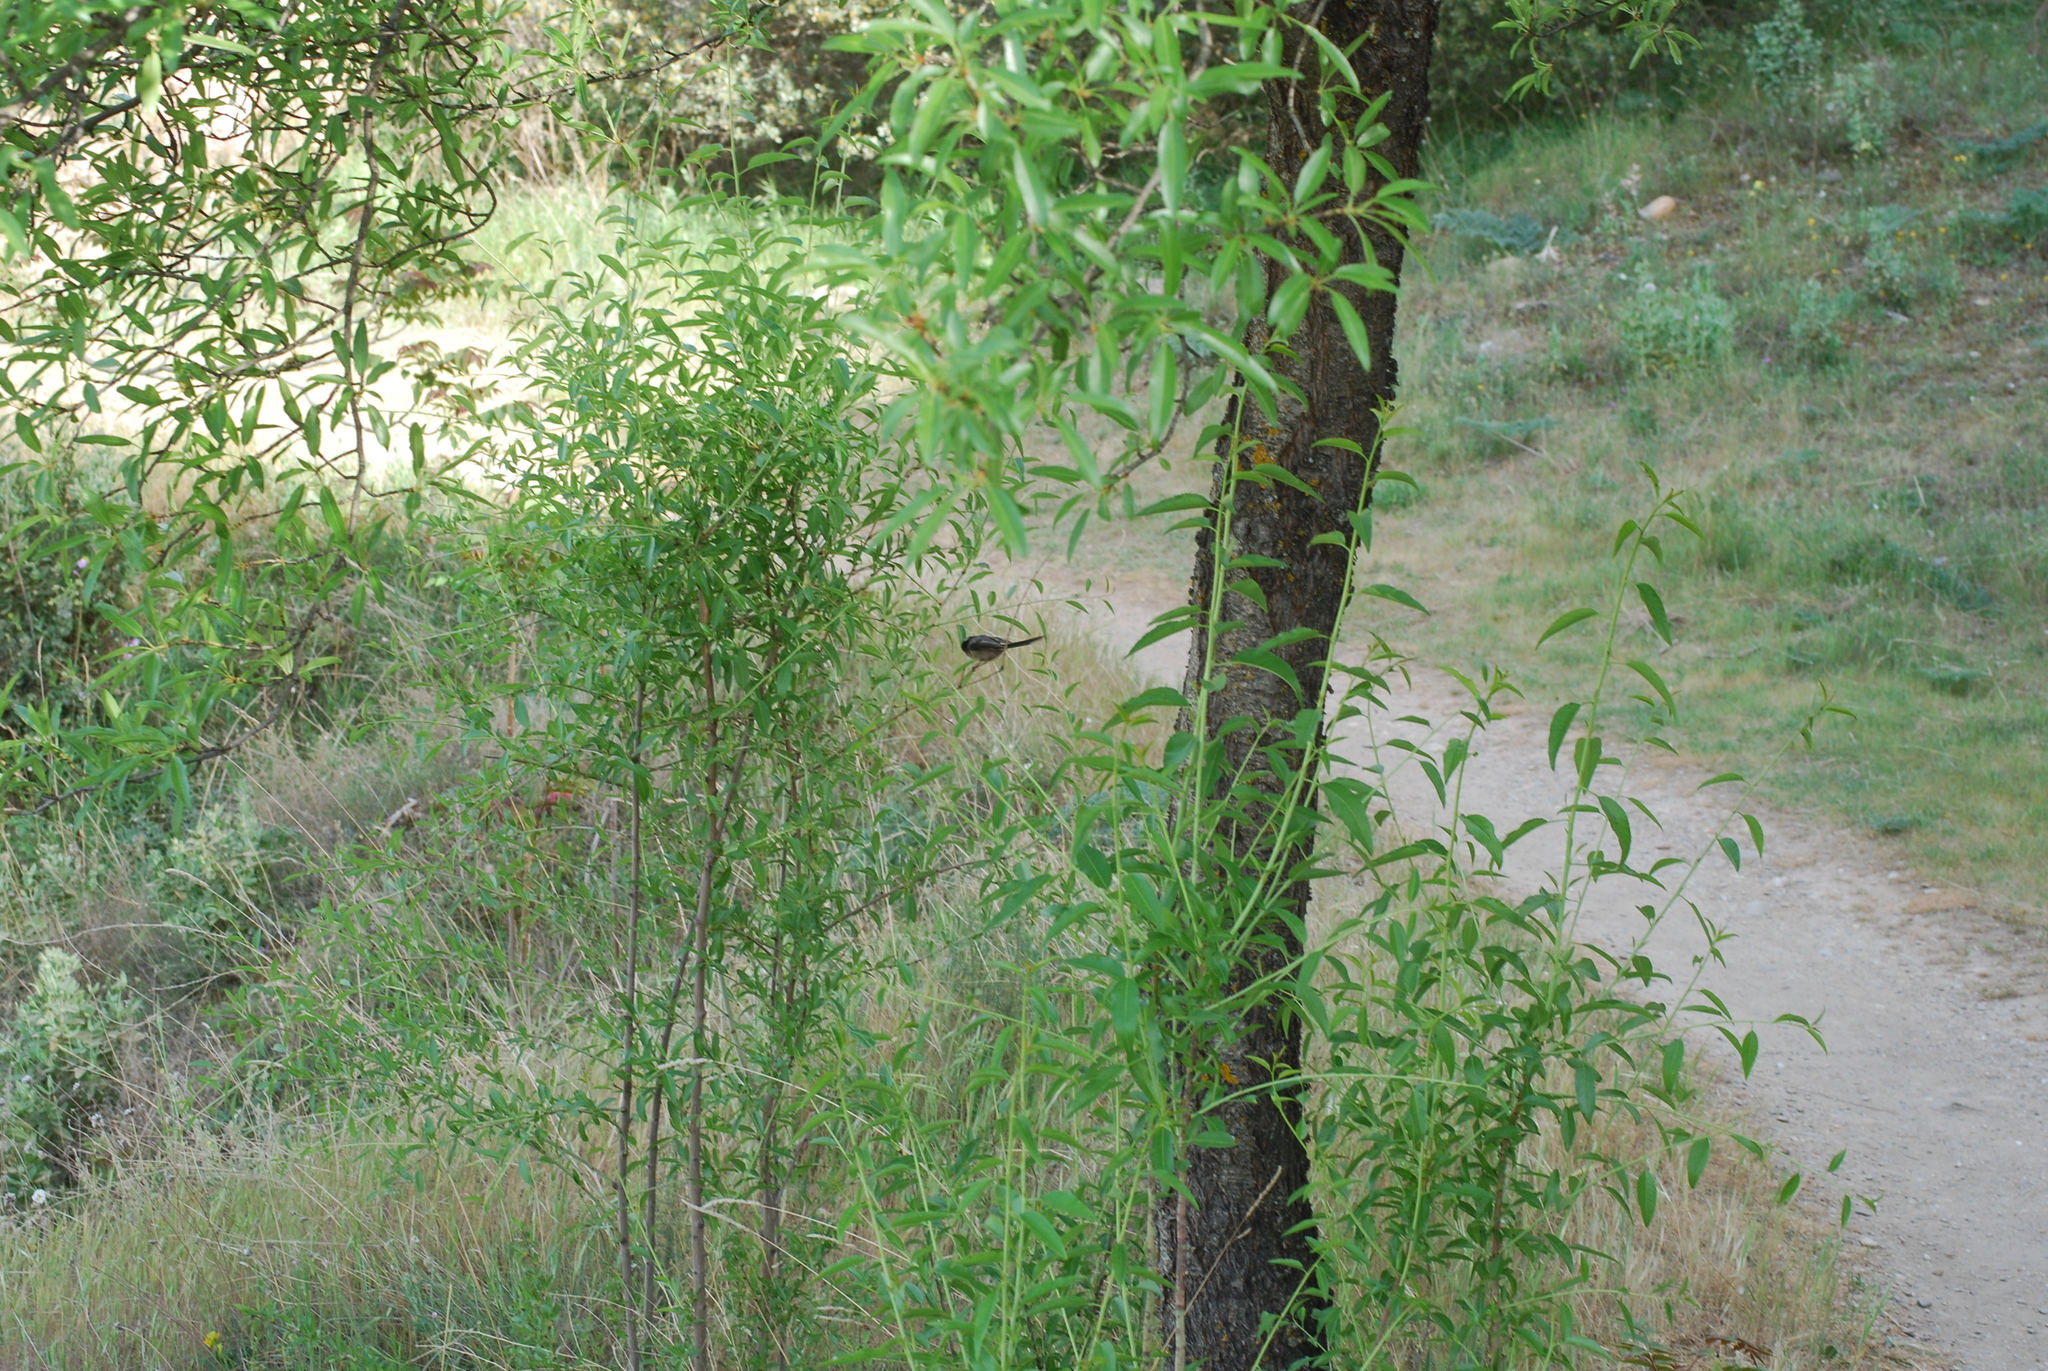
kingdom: Animalia
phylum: Chordata
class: Aves
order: Passeriformes
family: Aegithalidae
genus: Aegithalos
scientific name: Aegithalos caudatus
